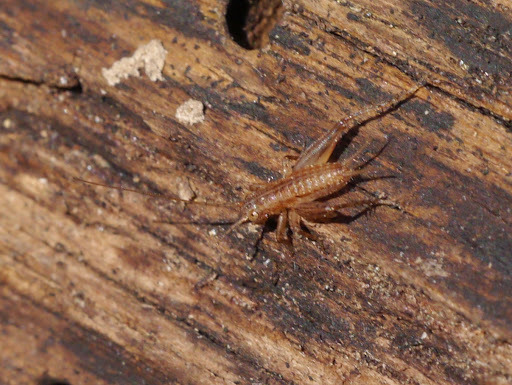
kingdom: Animalia
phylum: Arthropoda
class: Insecta
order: Orthoptera
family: Trigonidiidae
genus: Falcicula
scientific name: Falcicula hebardi
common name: Hebard's bush cricket
